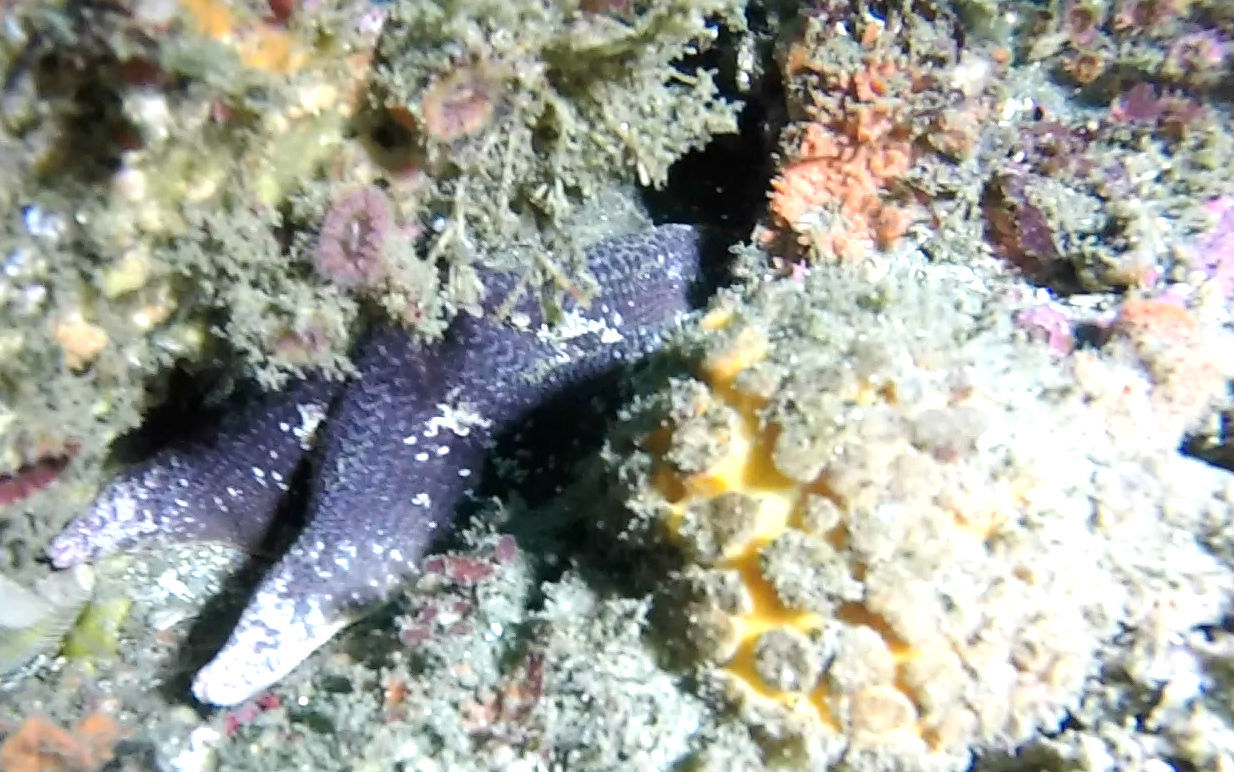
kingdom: Animalia
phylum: Echinodermata
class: Asteroidea
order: Valvatida
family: Asterinidae
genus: Patiria
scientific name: Patiria miniata
